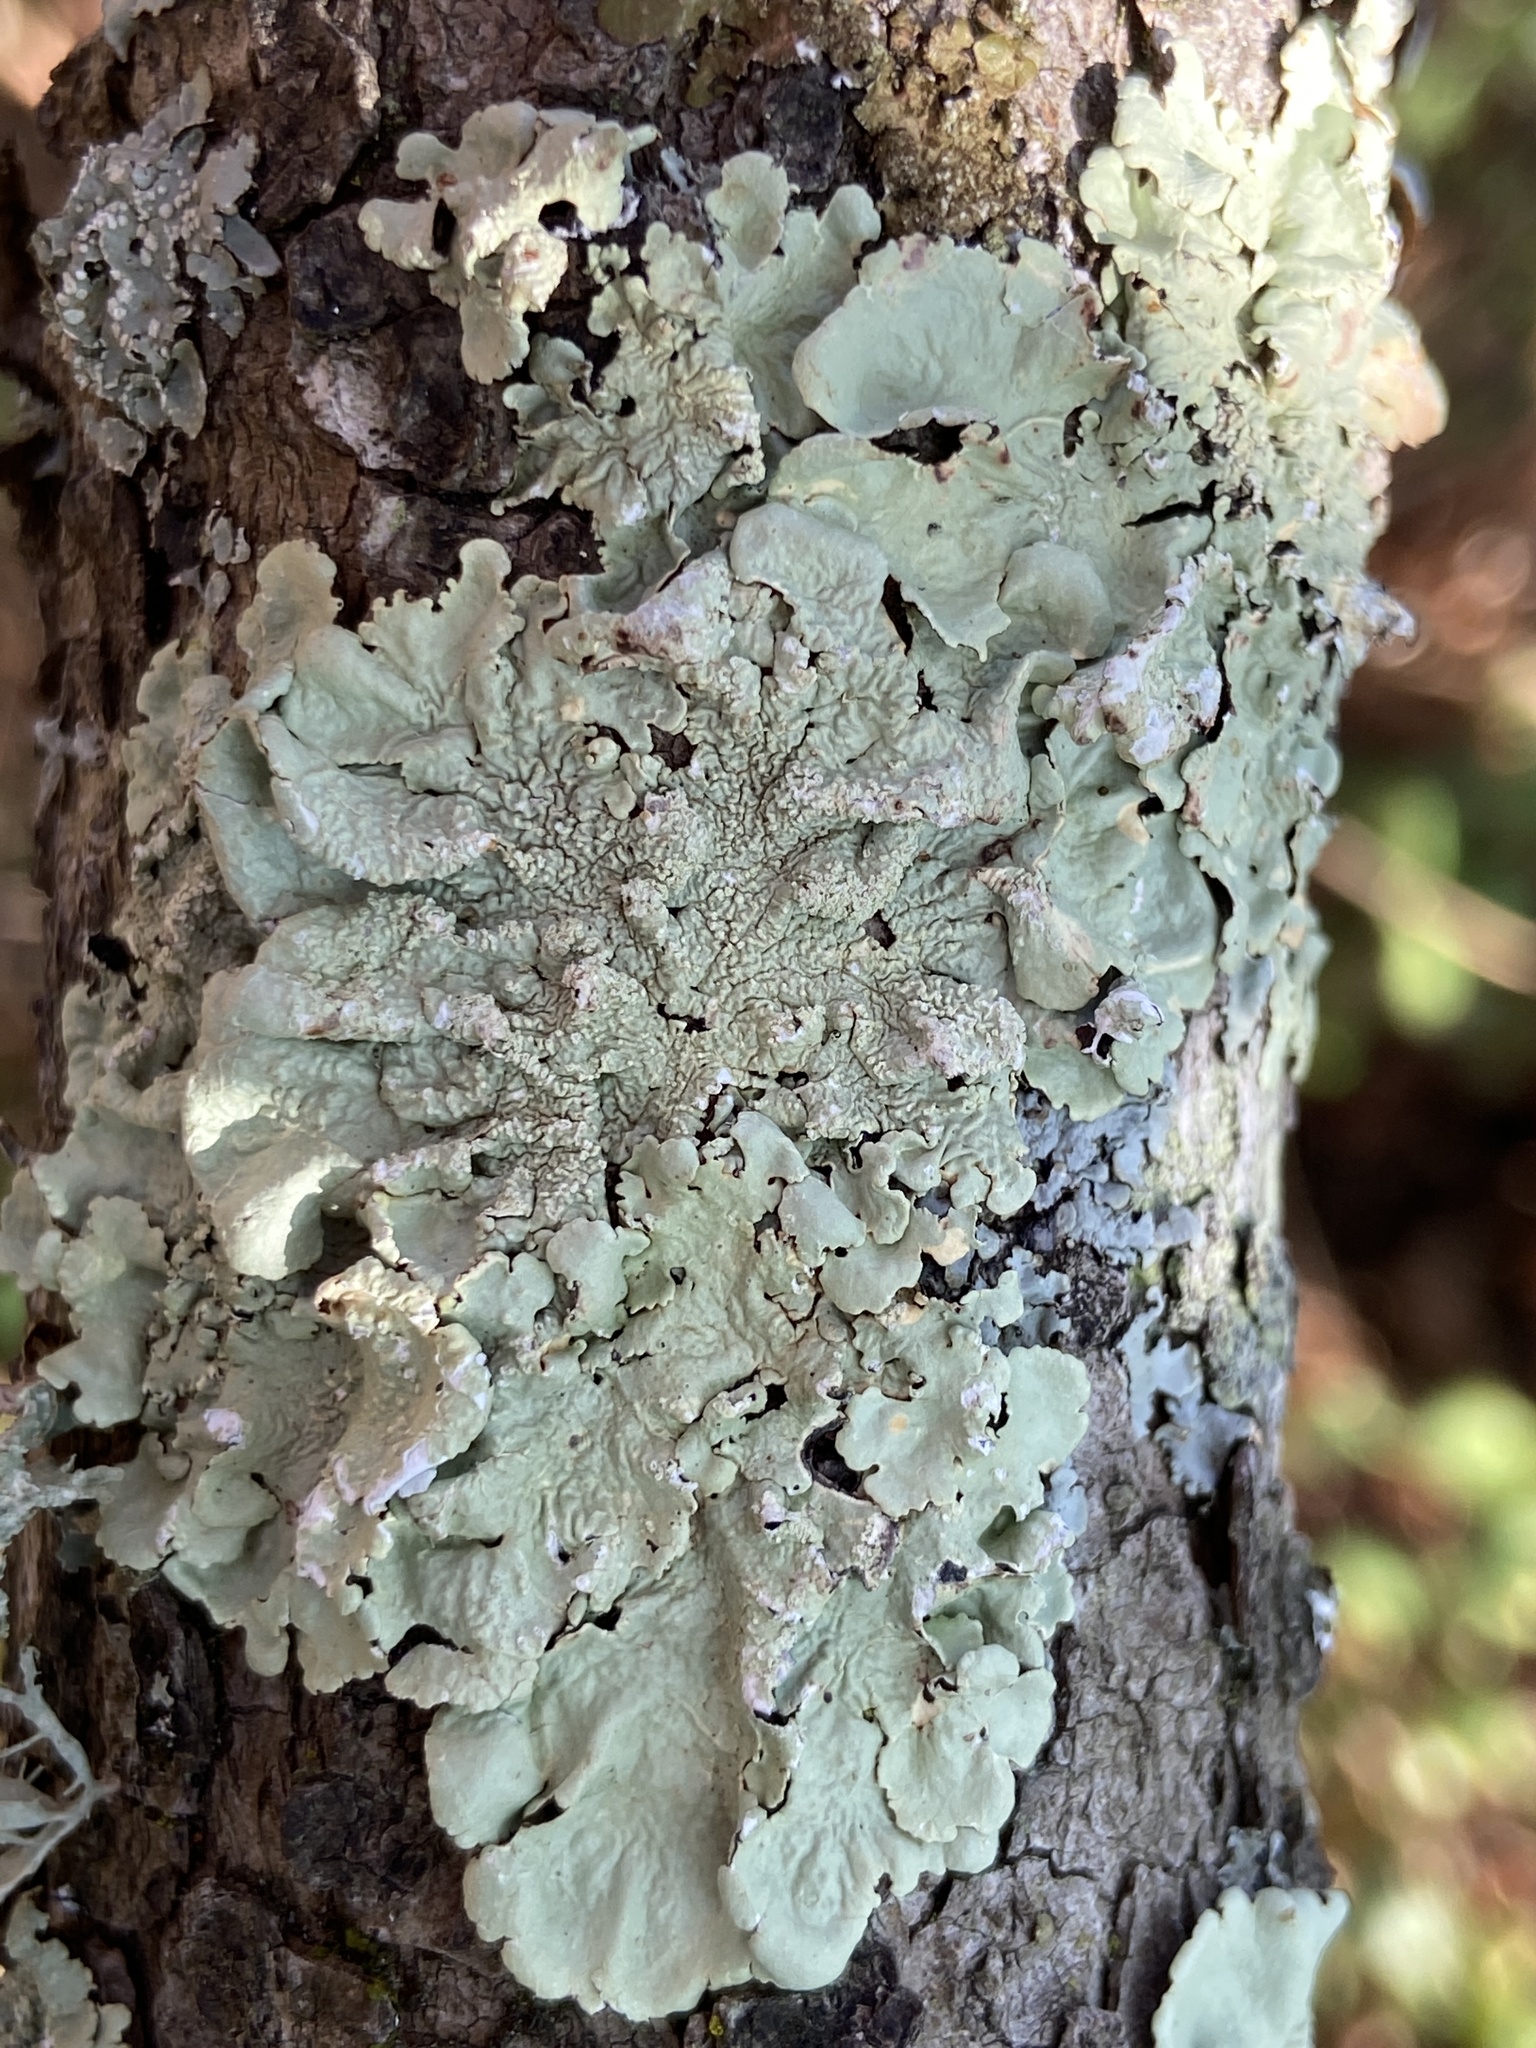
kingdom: Fungi
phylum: Ascomycota
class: Lecanoromycetes
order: Lecanorales
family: Parmeliaceae
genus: Flavoparmelia
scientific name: Flavoparmelia caperata
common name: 40-mile per hour lichen
